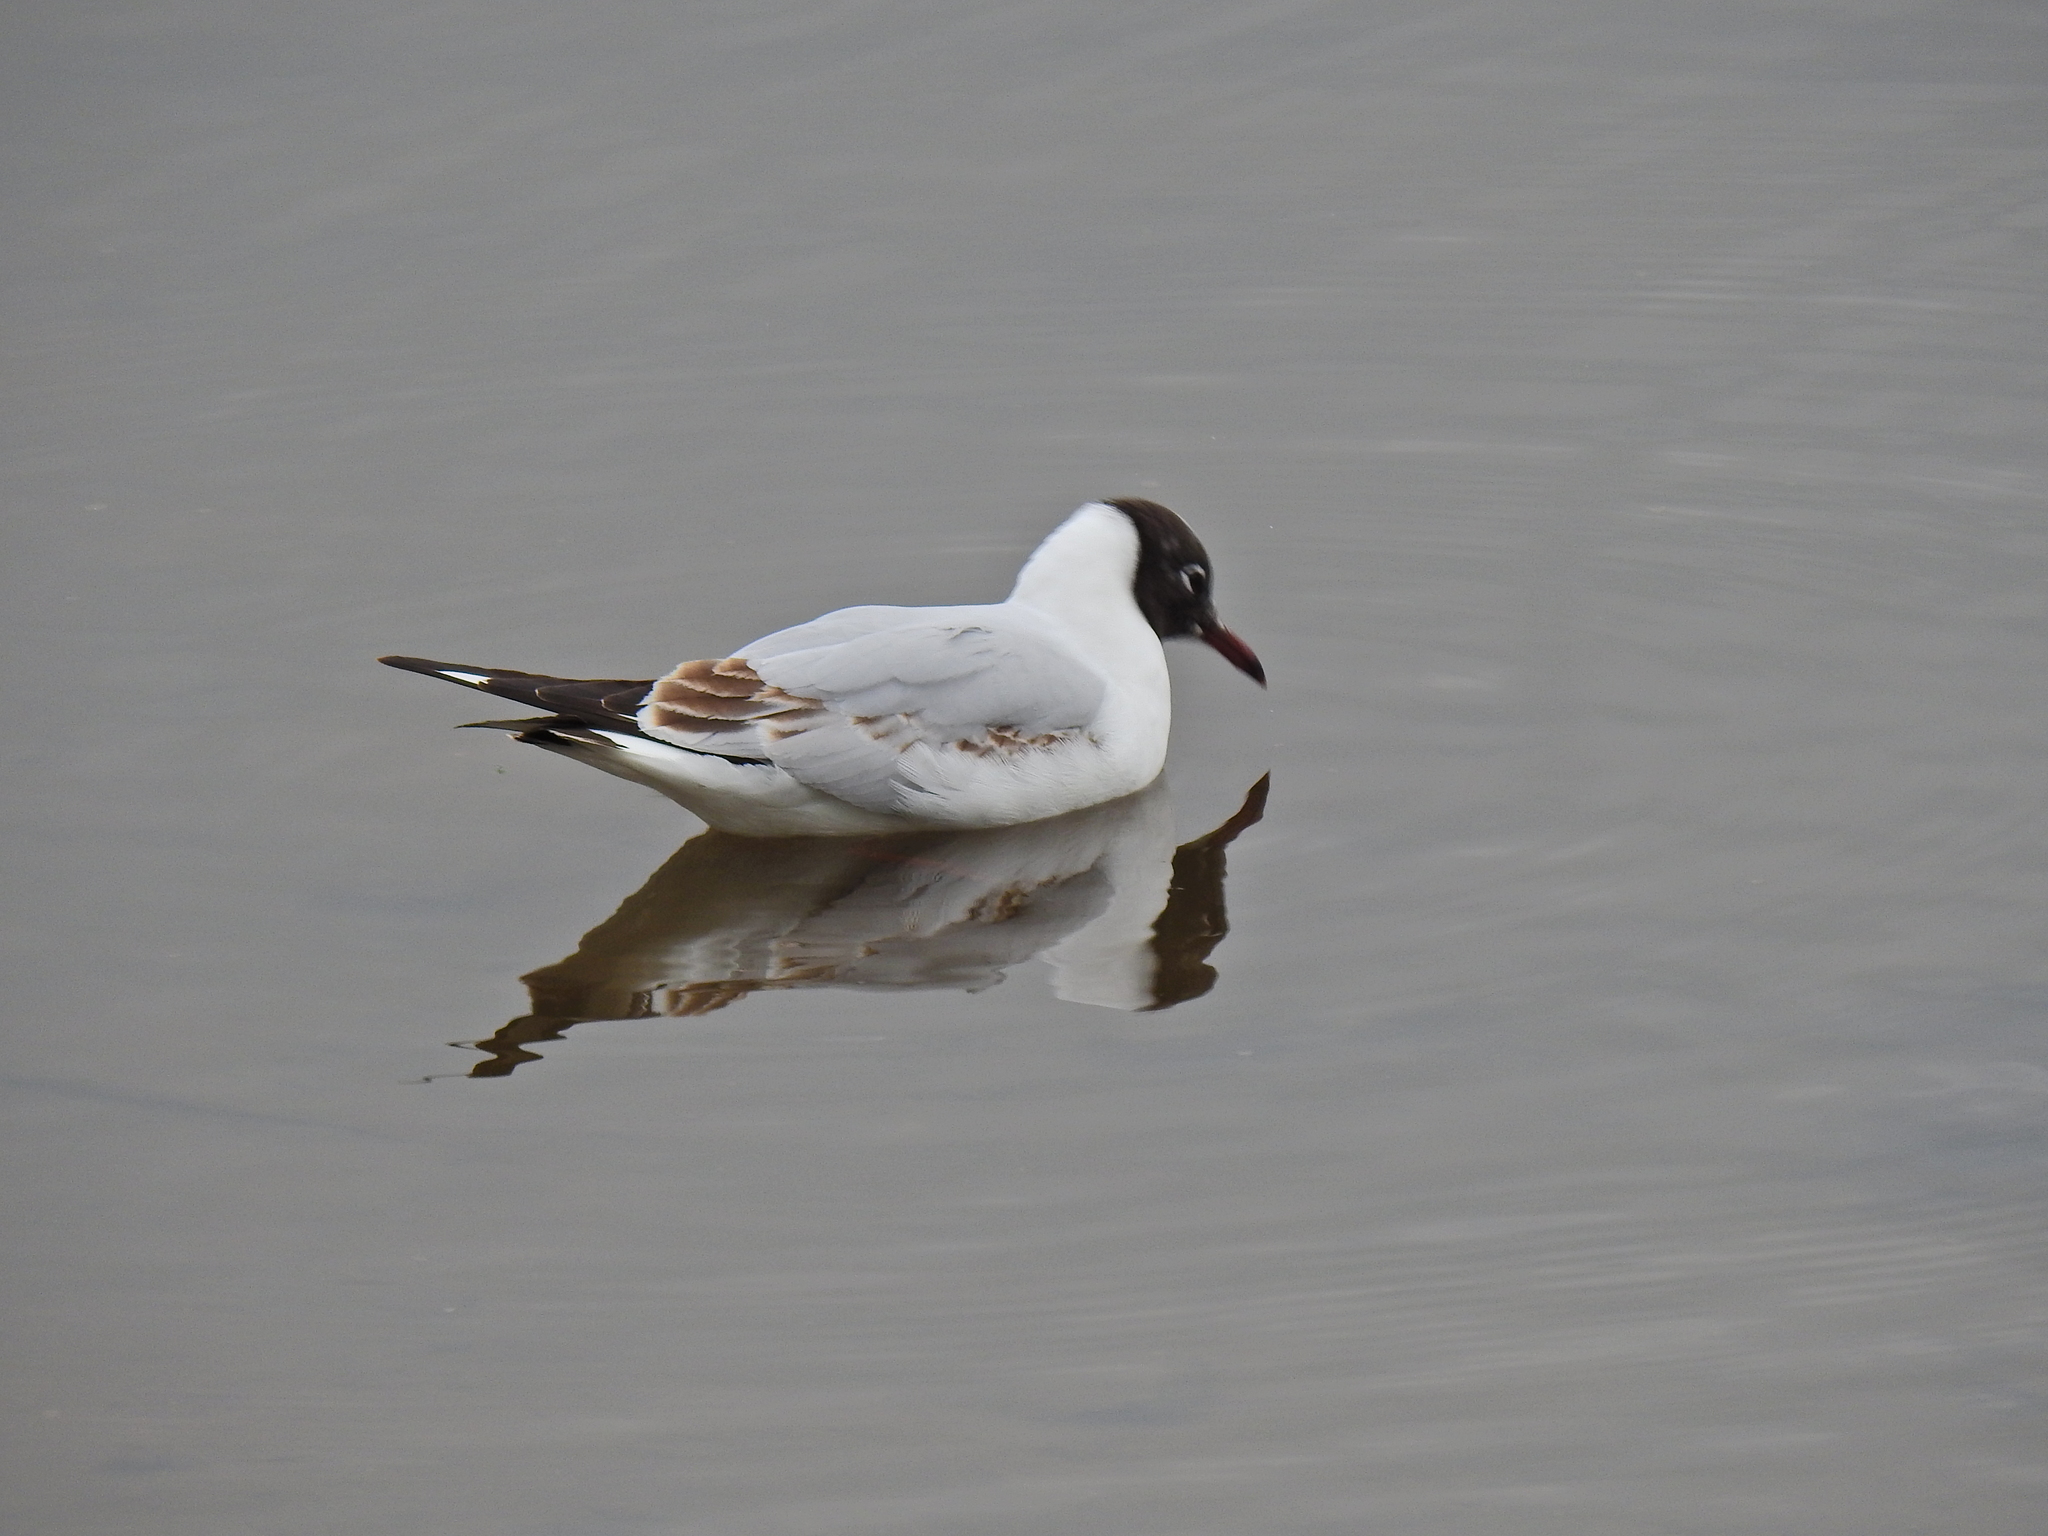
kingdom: Animalia
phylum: Chordata
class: Aves
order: Charadriiformes
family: Laridae
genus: Chroicocephalus
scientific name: Chroicocephalus ridibundus
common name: Black-headed gull
